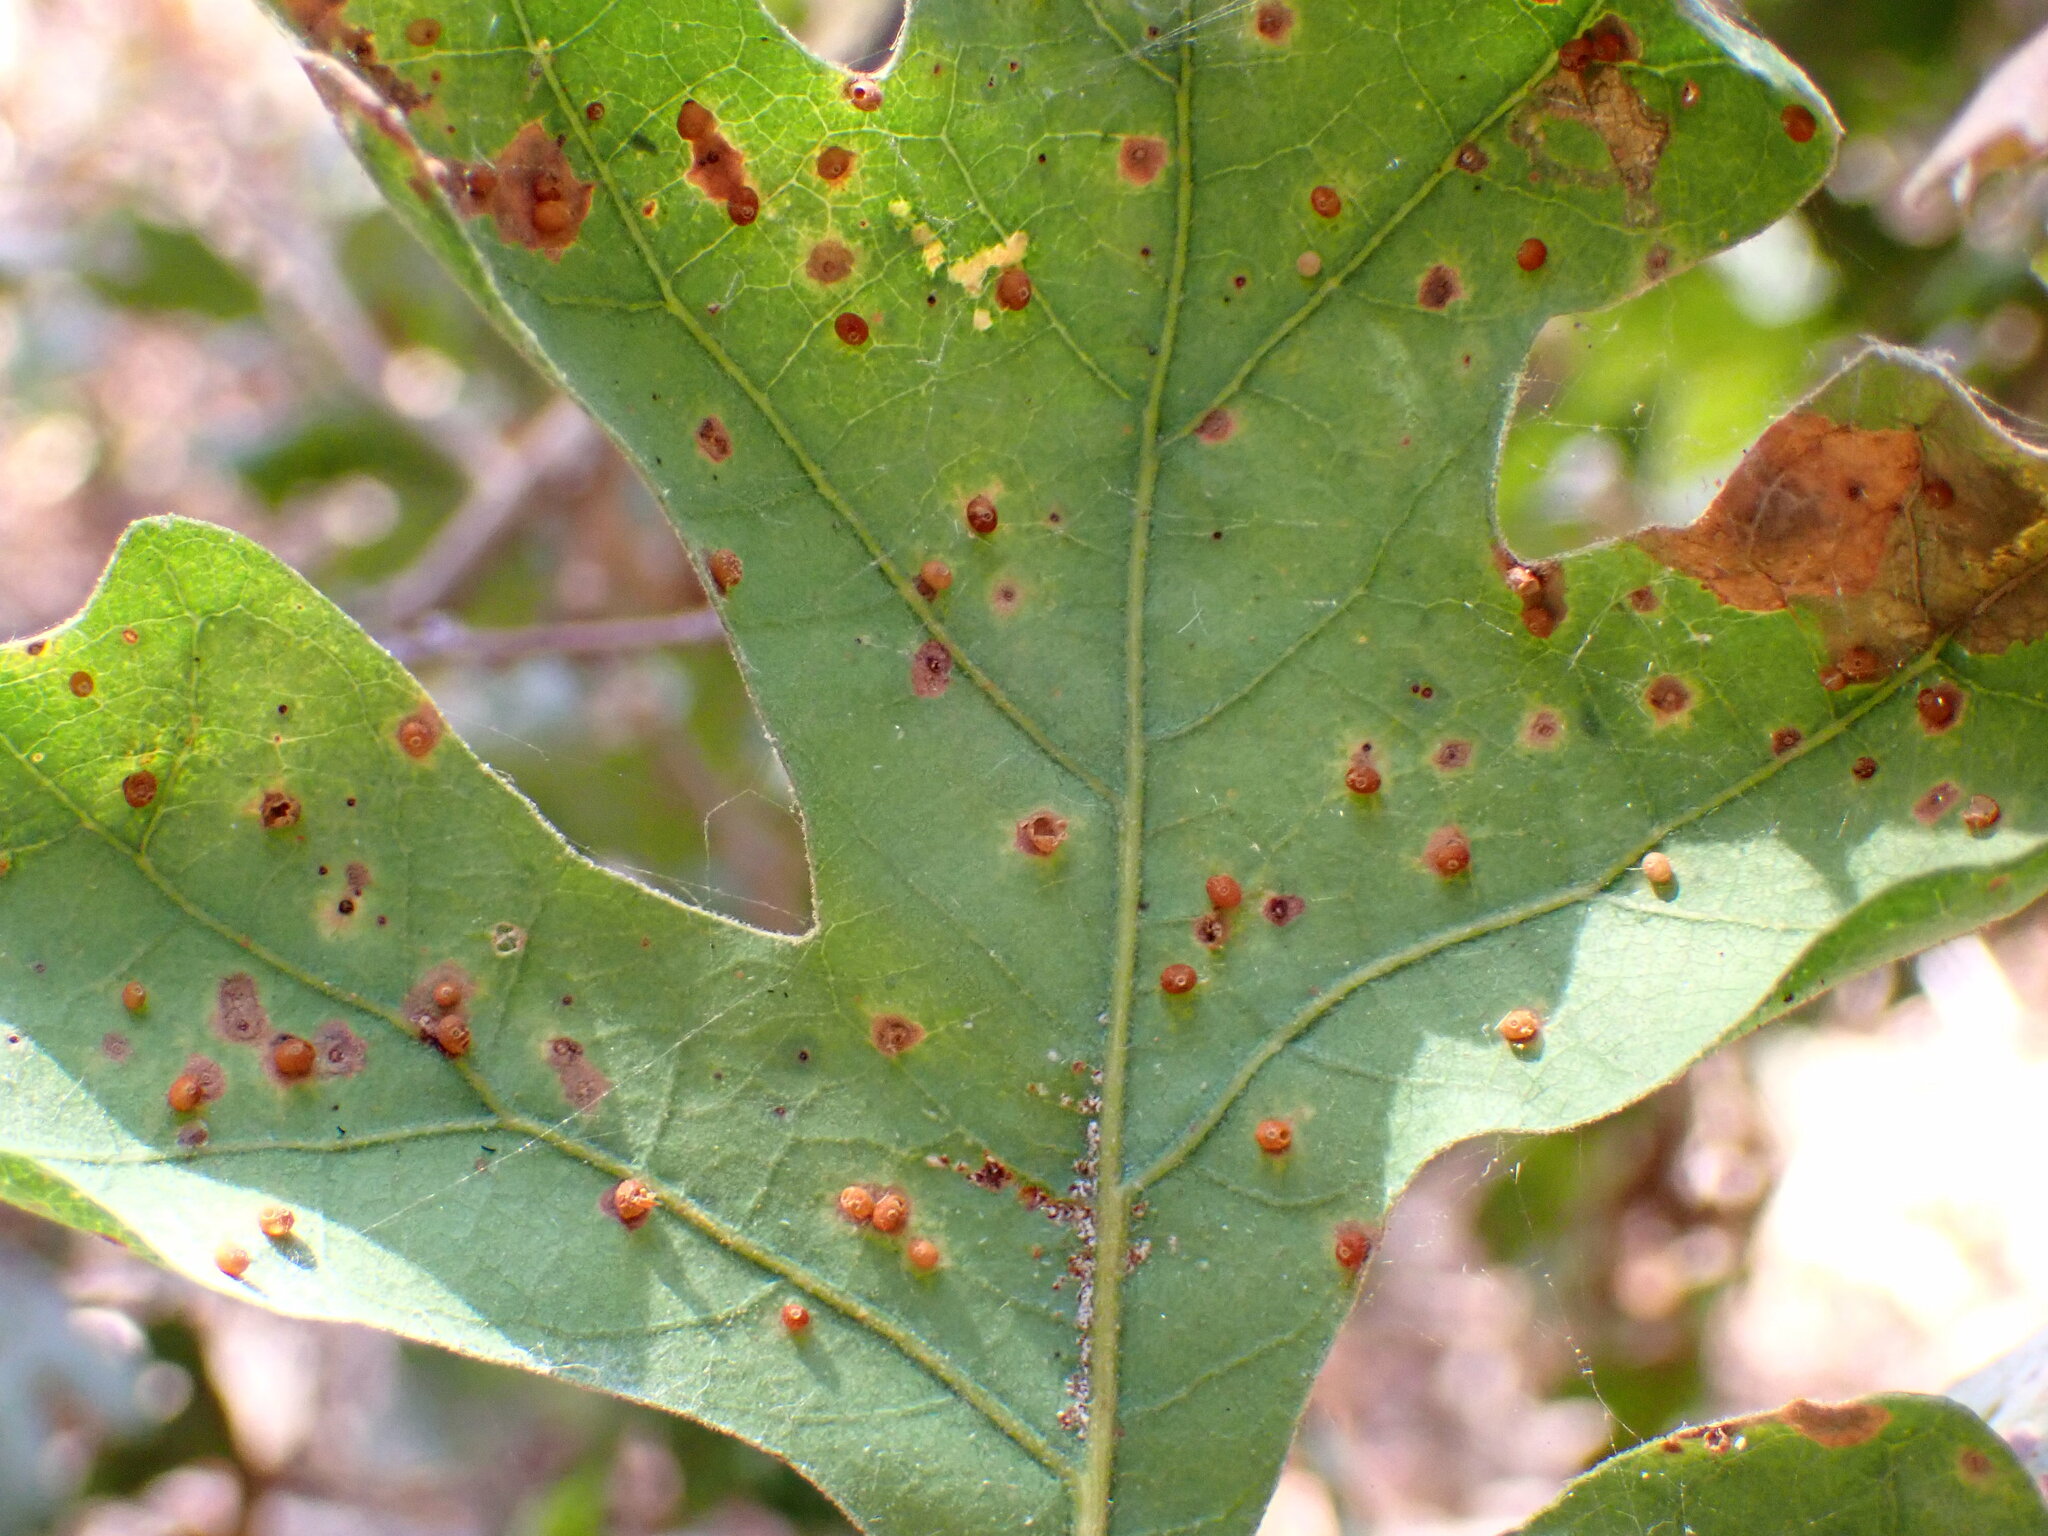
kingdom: Animalia
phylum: Arthropoda
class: Insecta
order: Hymenoptera
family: Cynipidae
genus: Neuroterus
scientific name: Neuroterus saltarius
